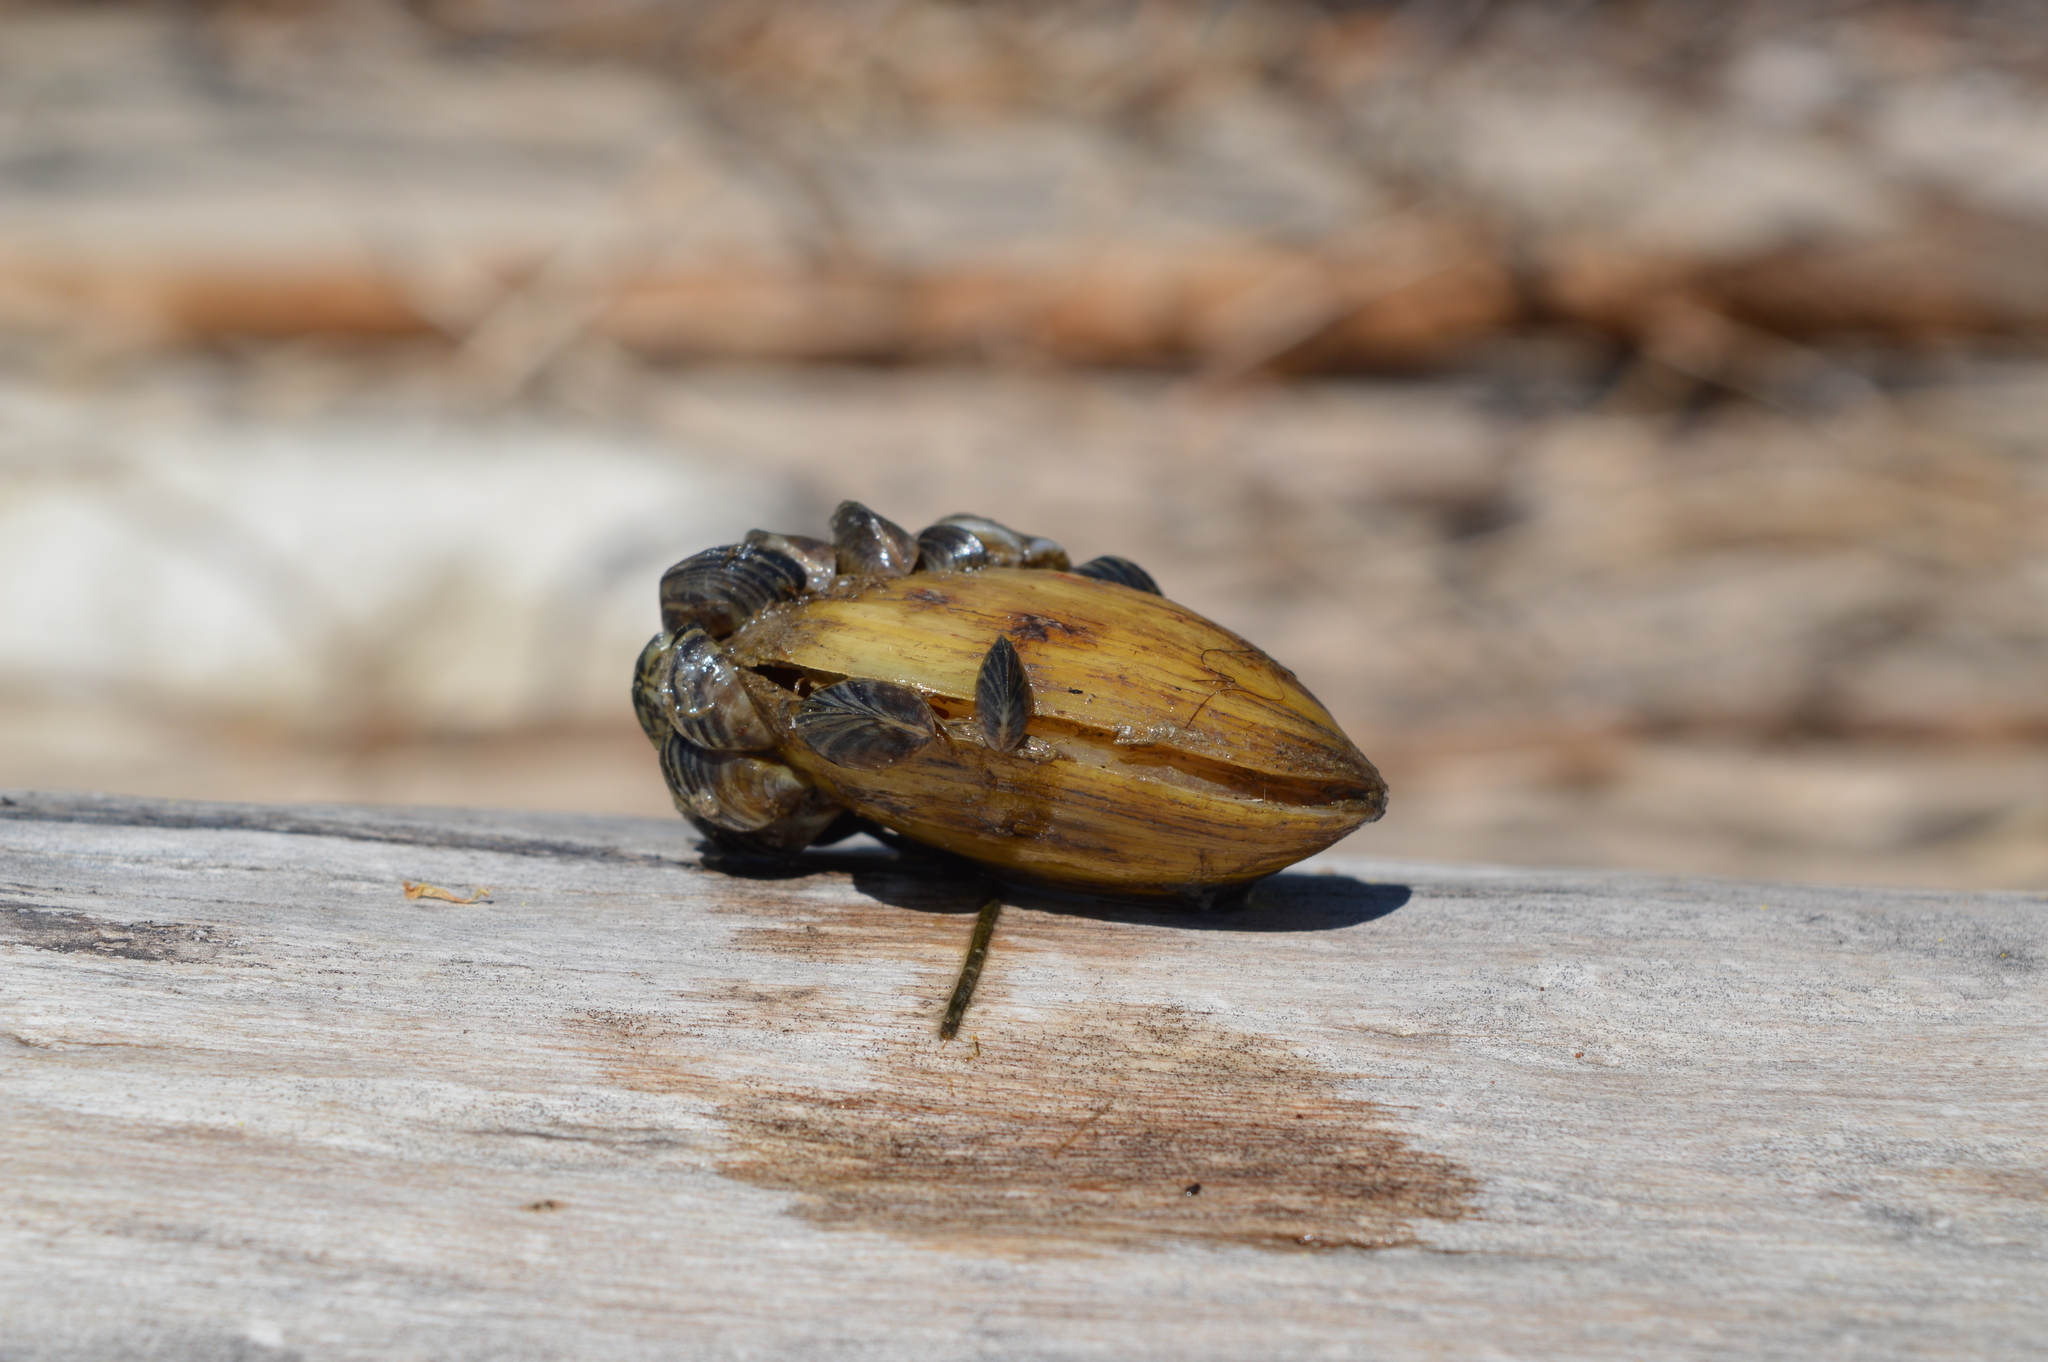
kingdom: Animalia
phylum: Mollusca
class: Bivalvia
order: Unionida
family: Unionidae
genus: Lampsilis
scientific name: Lampsilis siliquoidea
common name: Fatmucket
